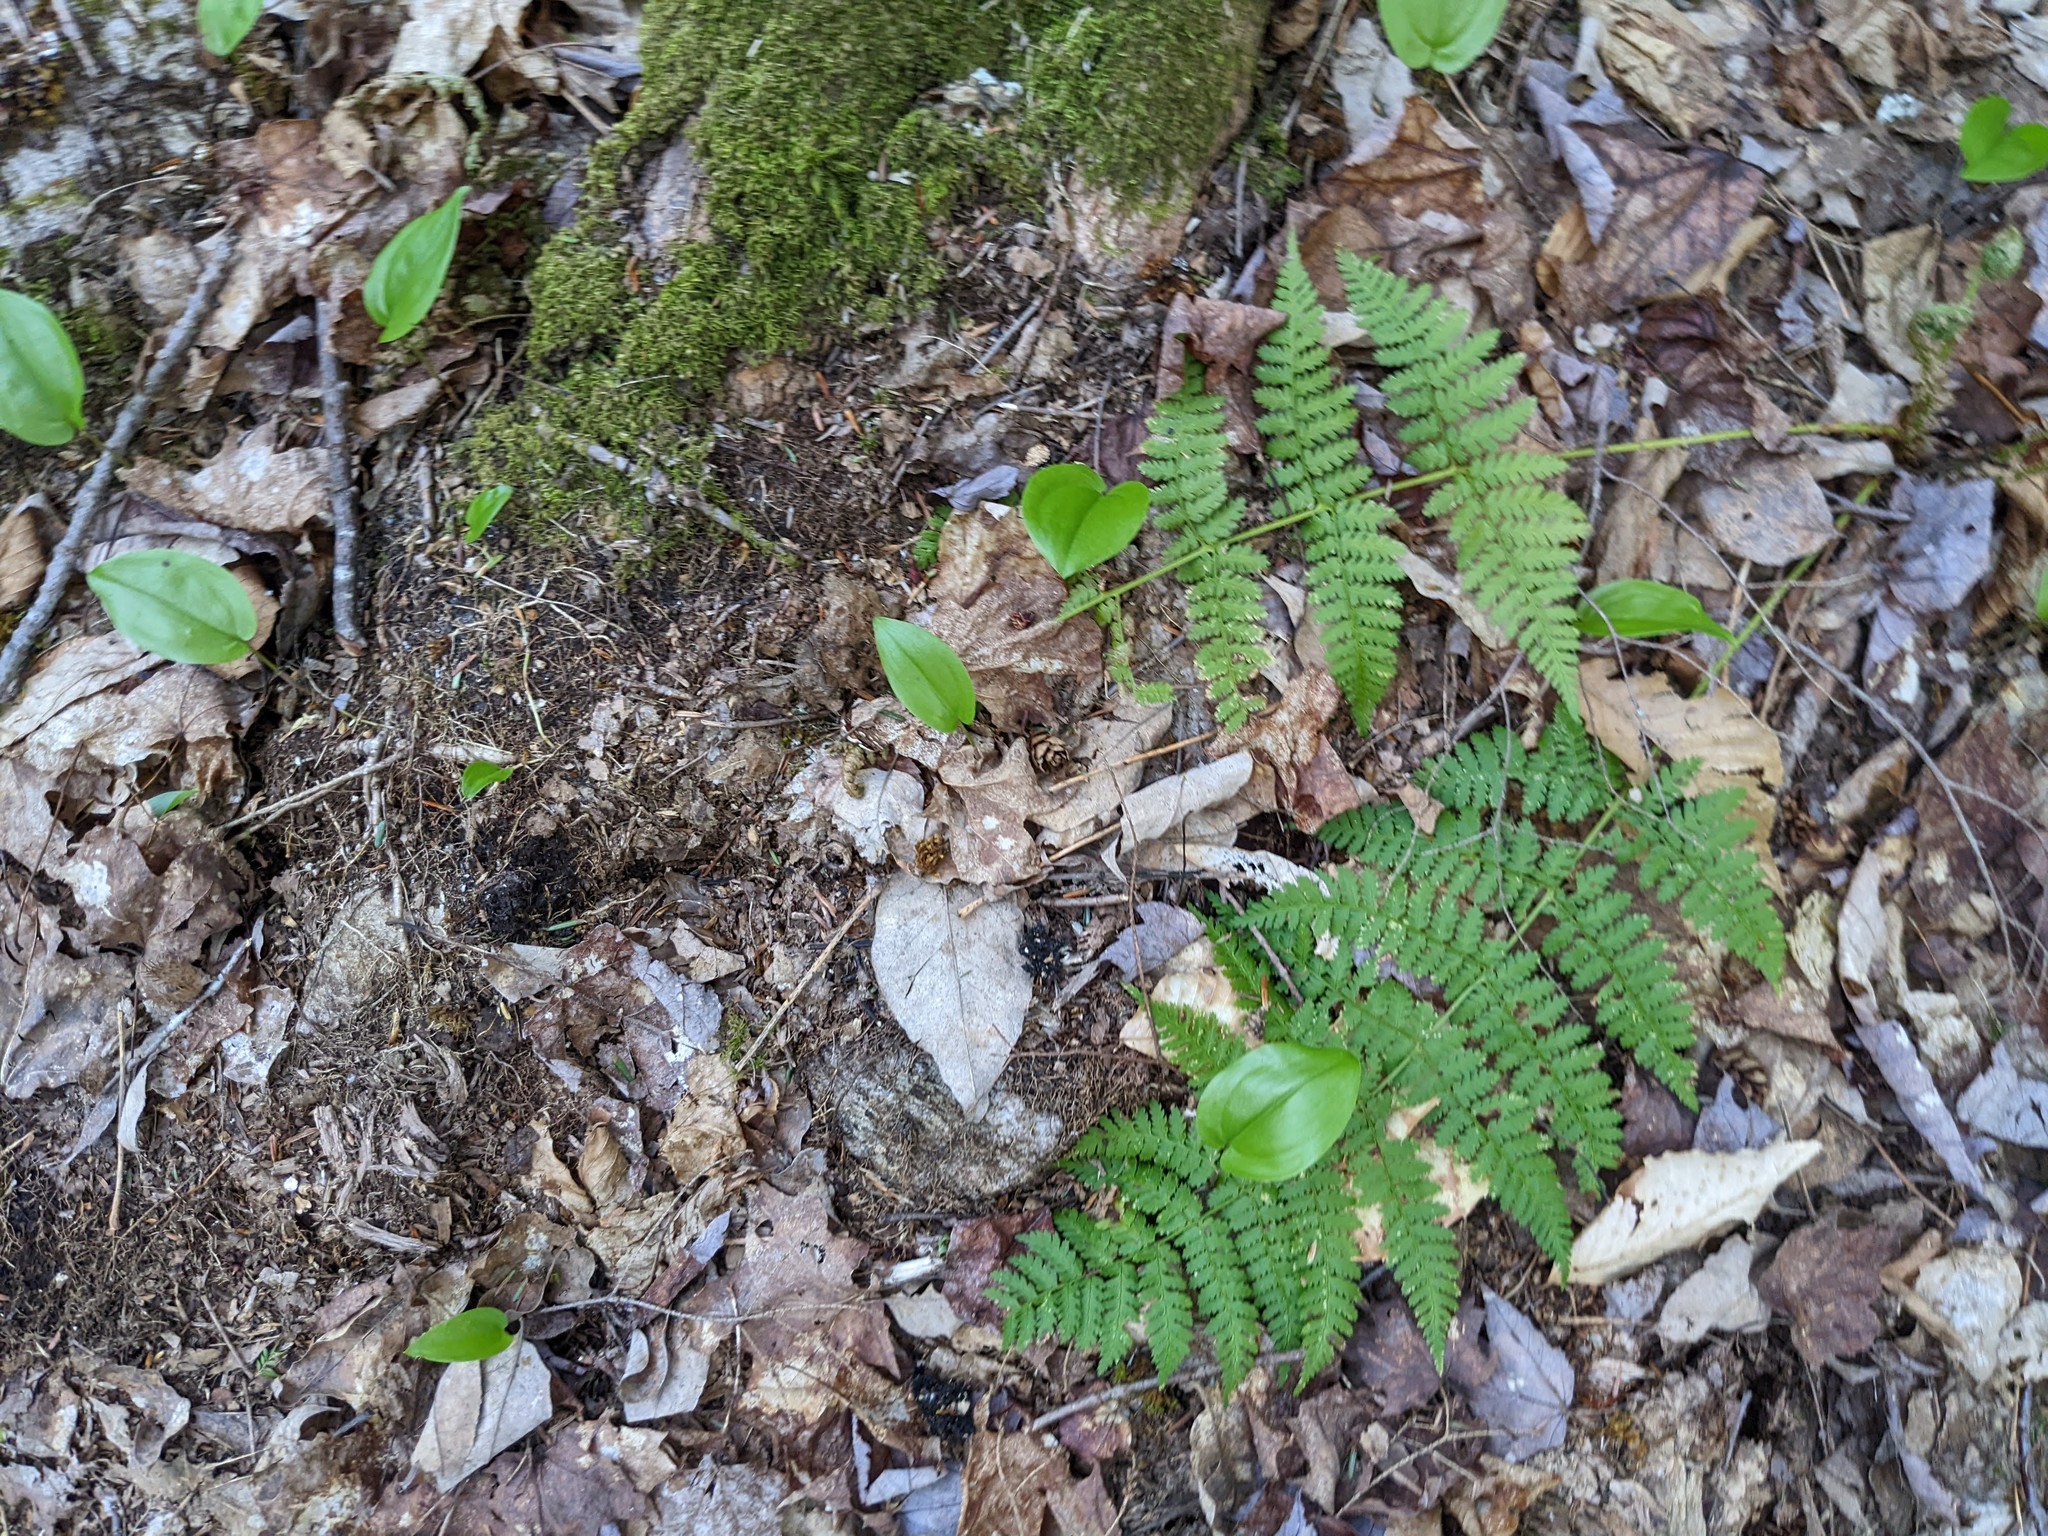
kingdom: Plantae
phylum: Tracheophyta
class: Polypodiopsida
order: Polypodiales
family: Dryopteridaceae
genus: Dryopteris
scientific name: Dryopteris intermedia
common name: Evergreen wood fern
